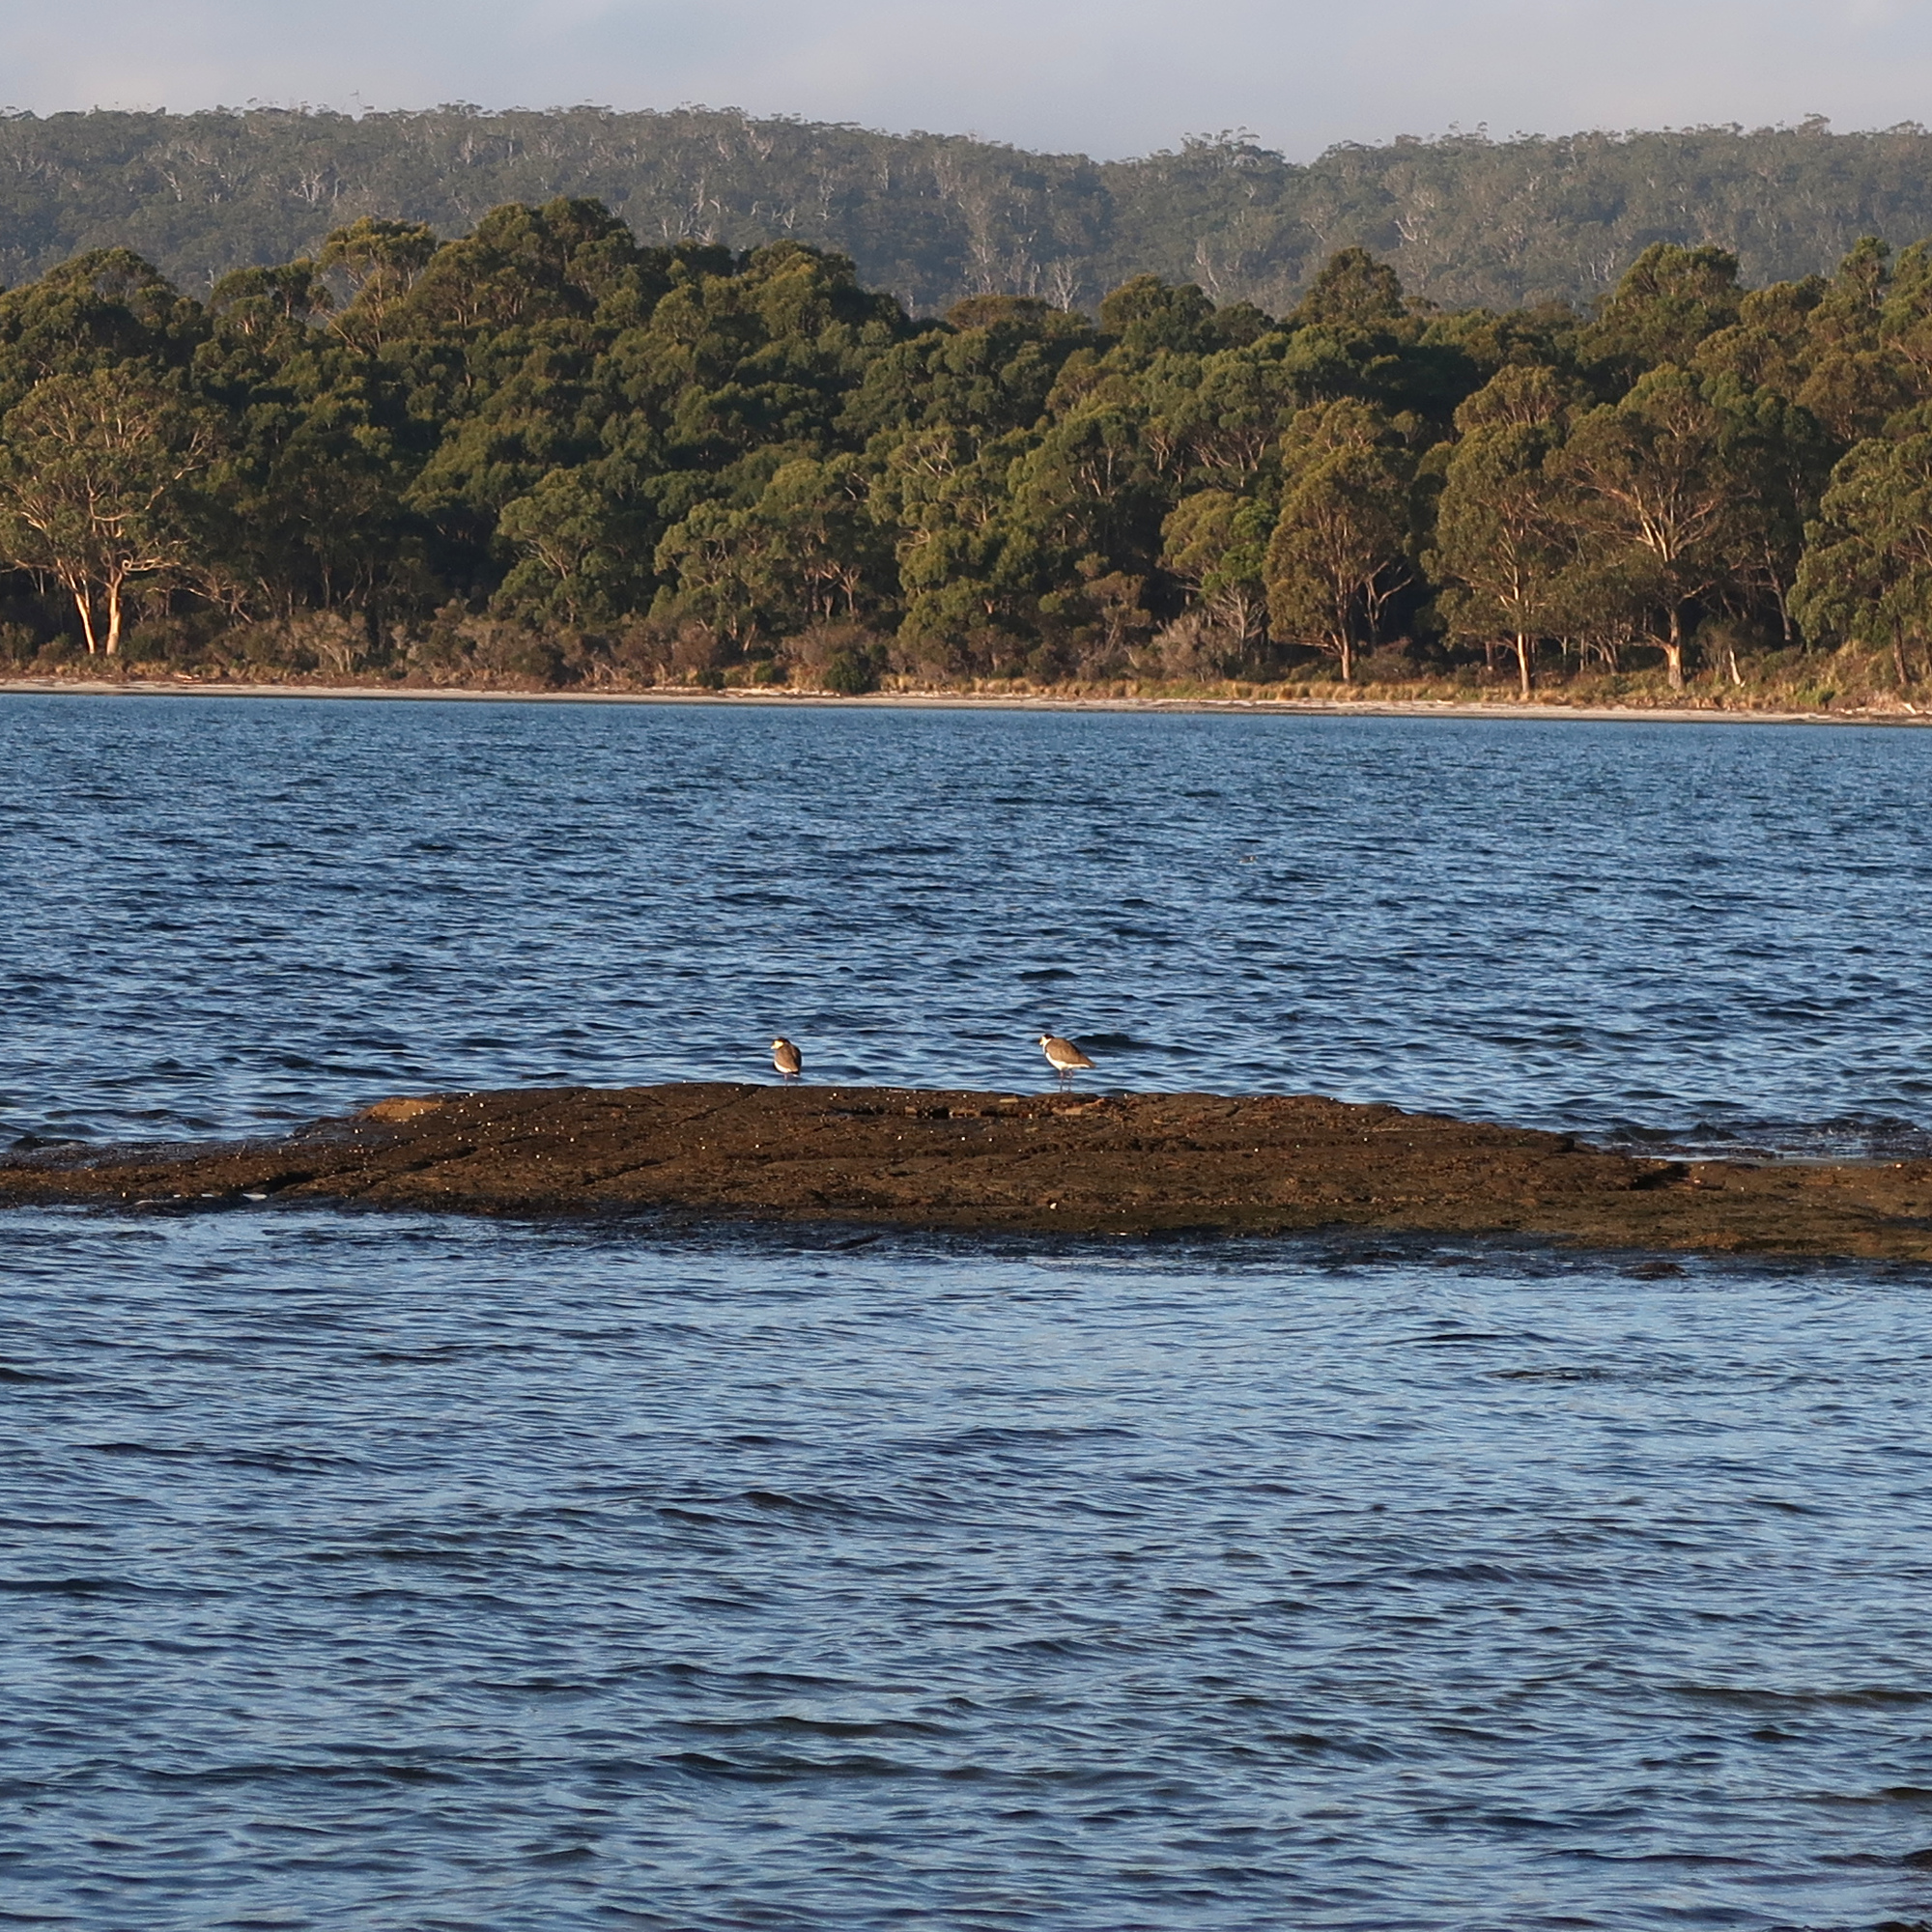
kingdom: Animalia
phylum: Chordata
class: Aves
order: Charadriiformes
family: Charadriidae
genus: Vanellus
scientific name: Vanellus miles
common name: Masked lapwing
